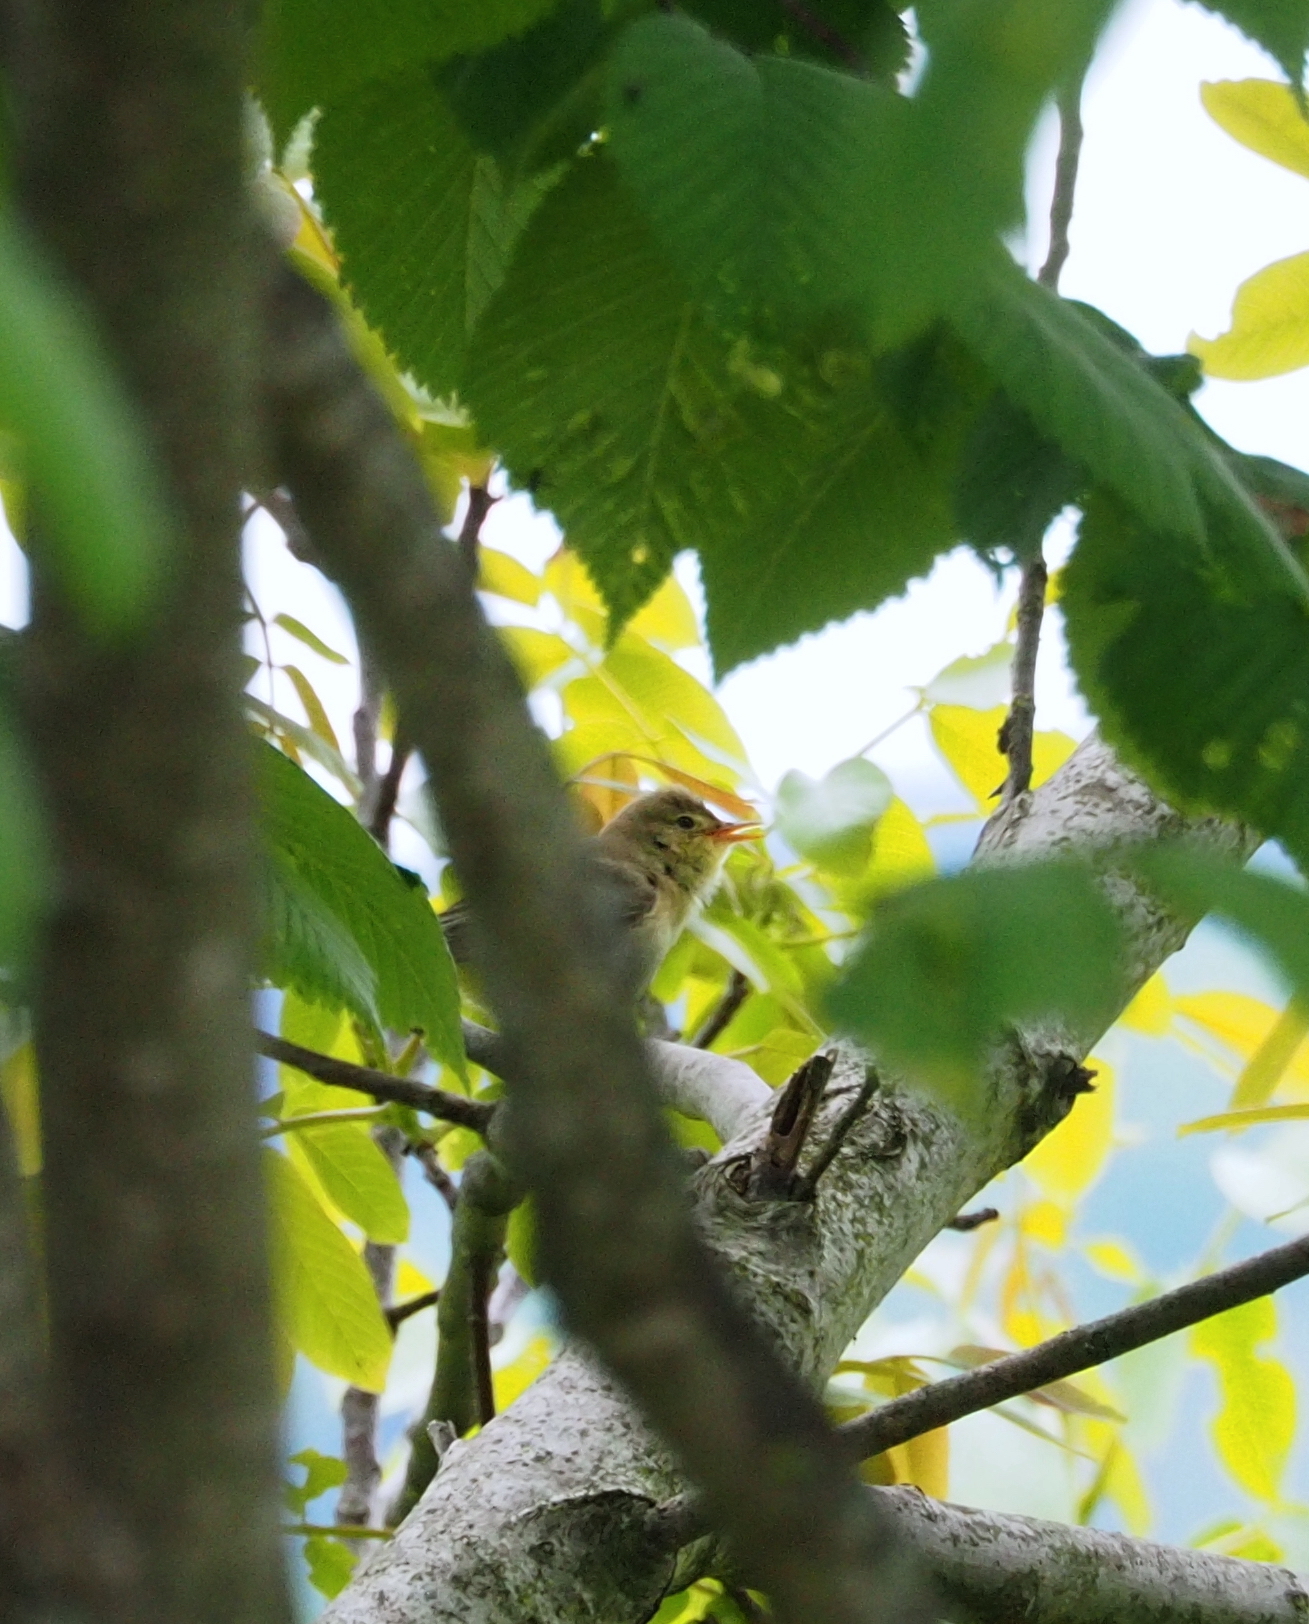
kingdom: Animalia
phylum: Chordata
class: Aves
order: Passeriformes
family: Acrocephalidae
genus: Hippolais
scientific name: Hippolais icterina
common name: Icterine warbler
